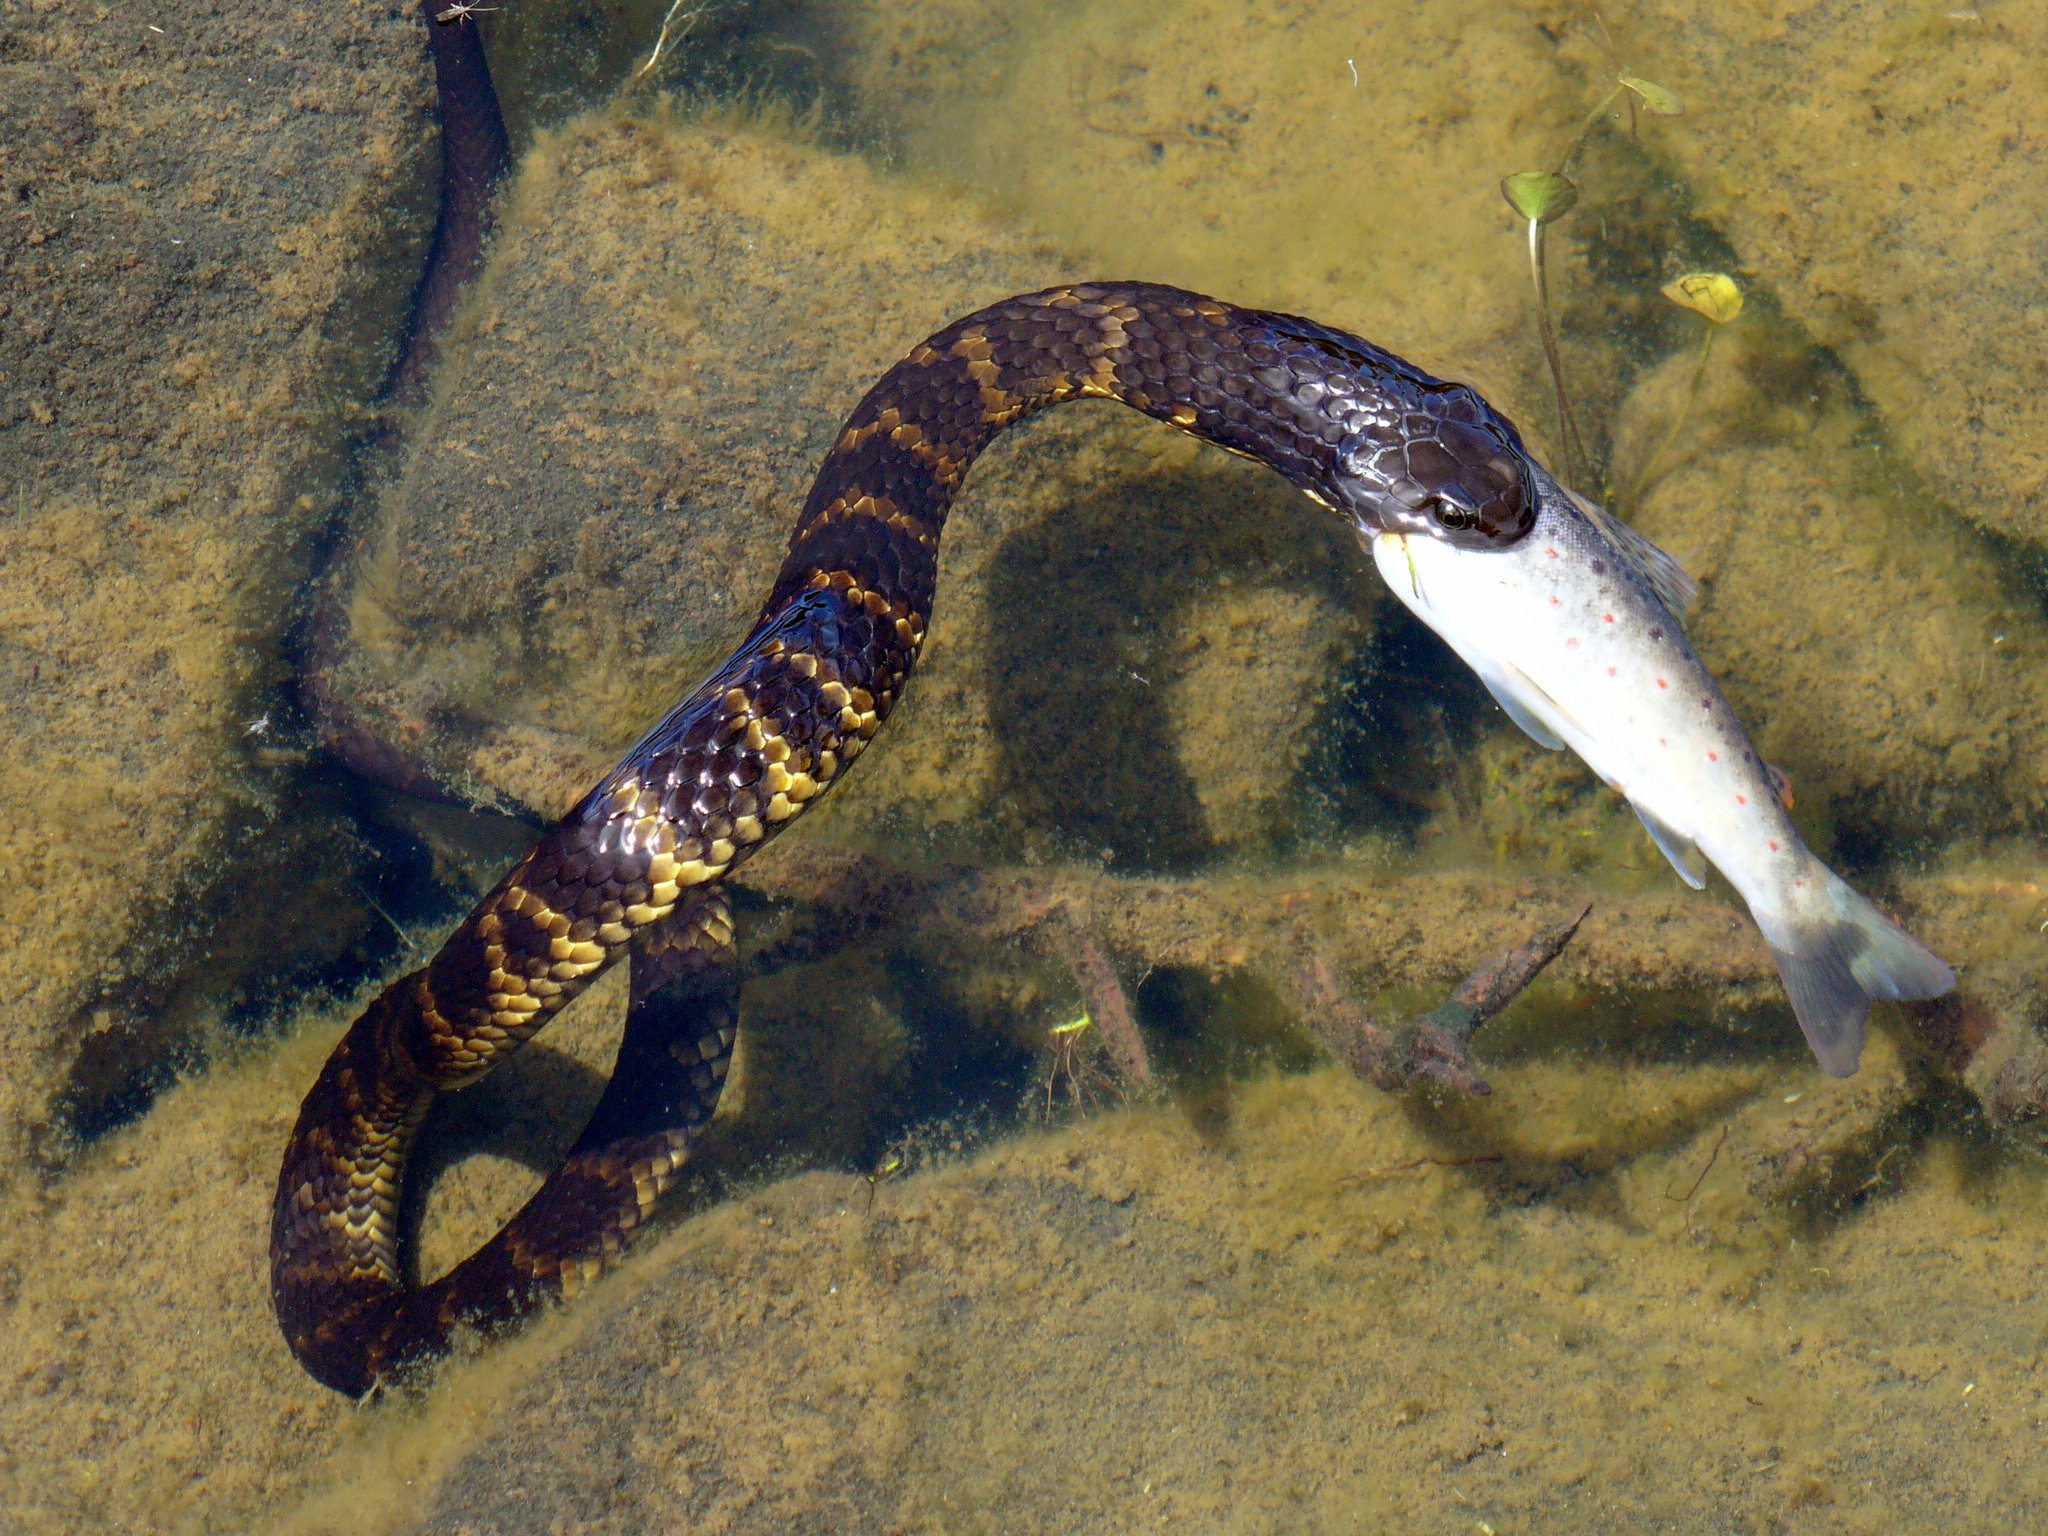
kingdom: Animalia
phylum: Chordata
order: Salmoniformes
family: Salmonidae
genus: Salmo
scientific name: Salmo trutta
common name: Brown trout
